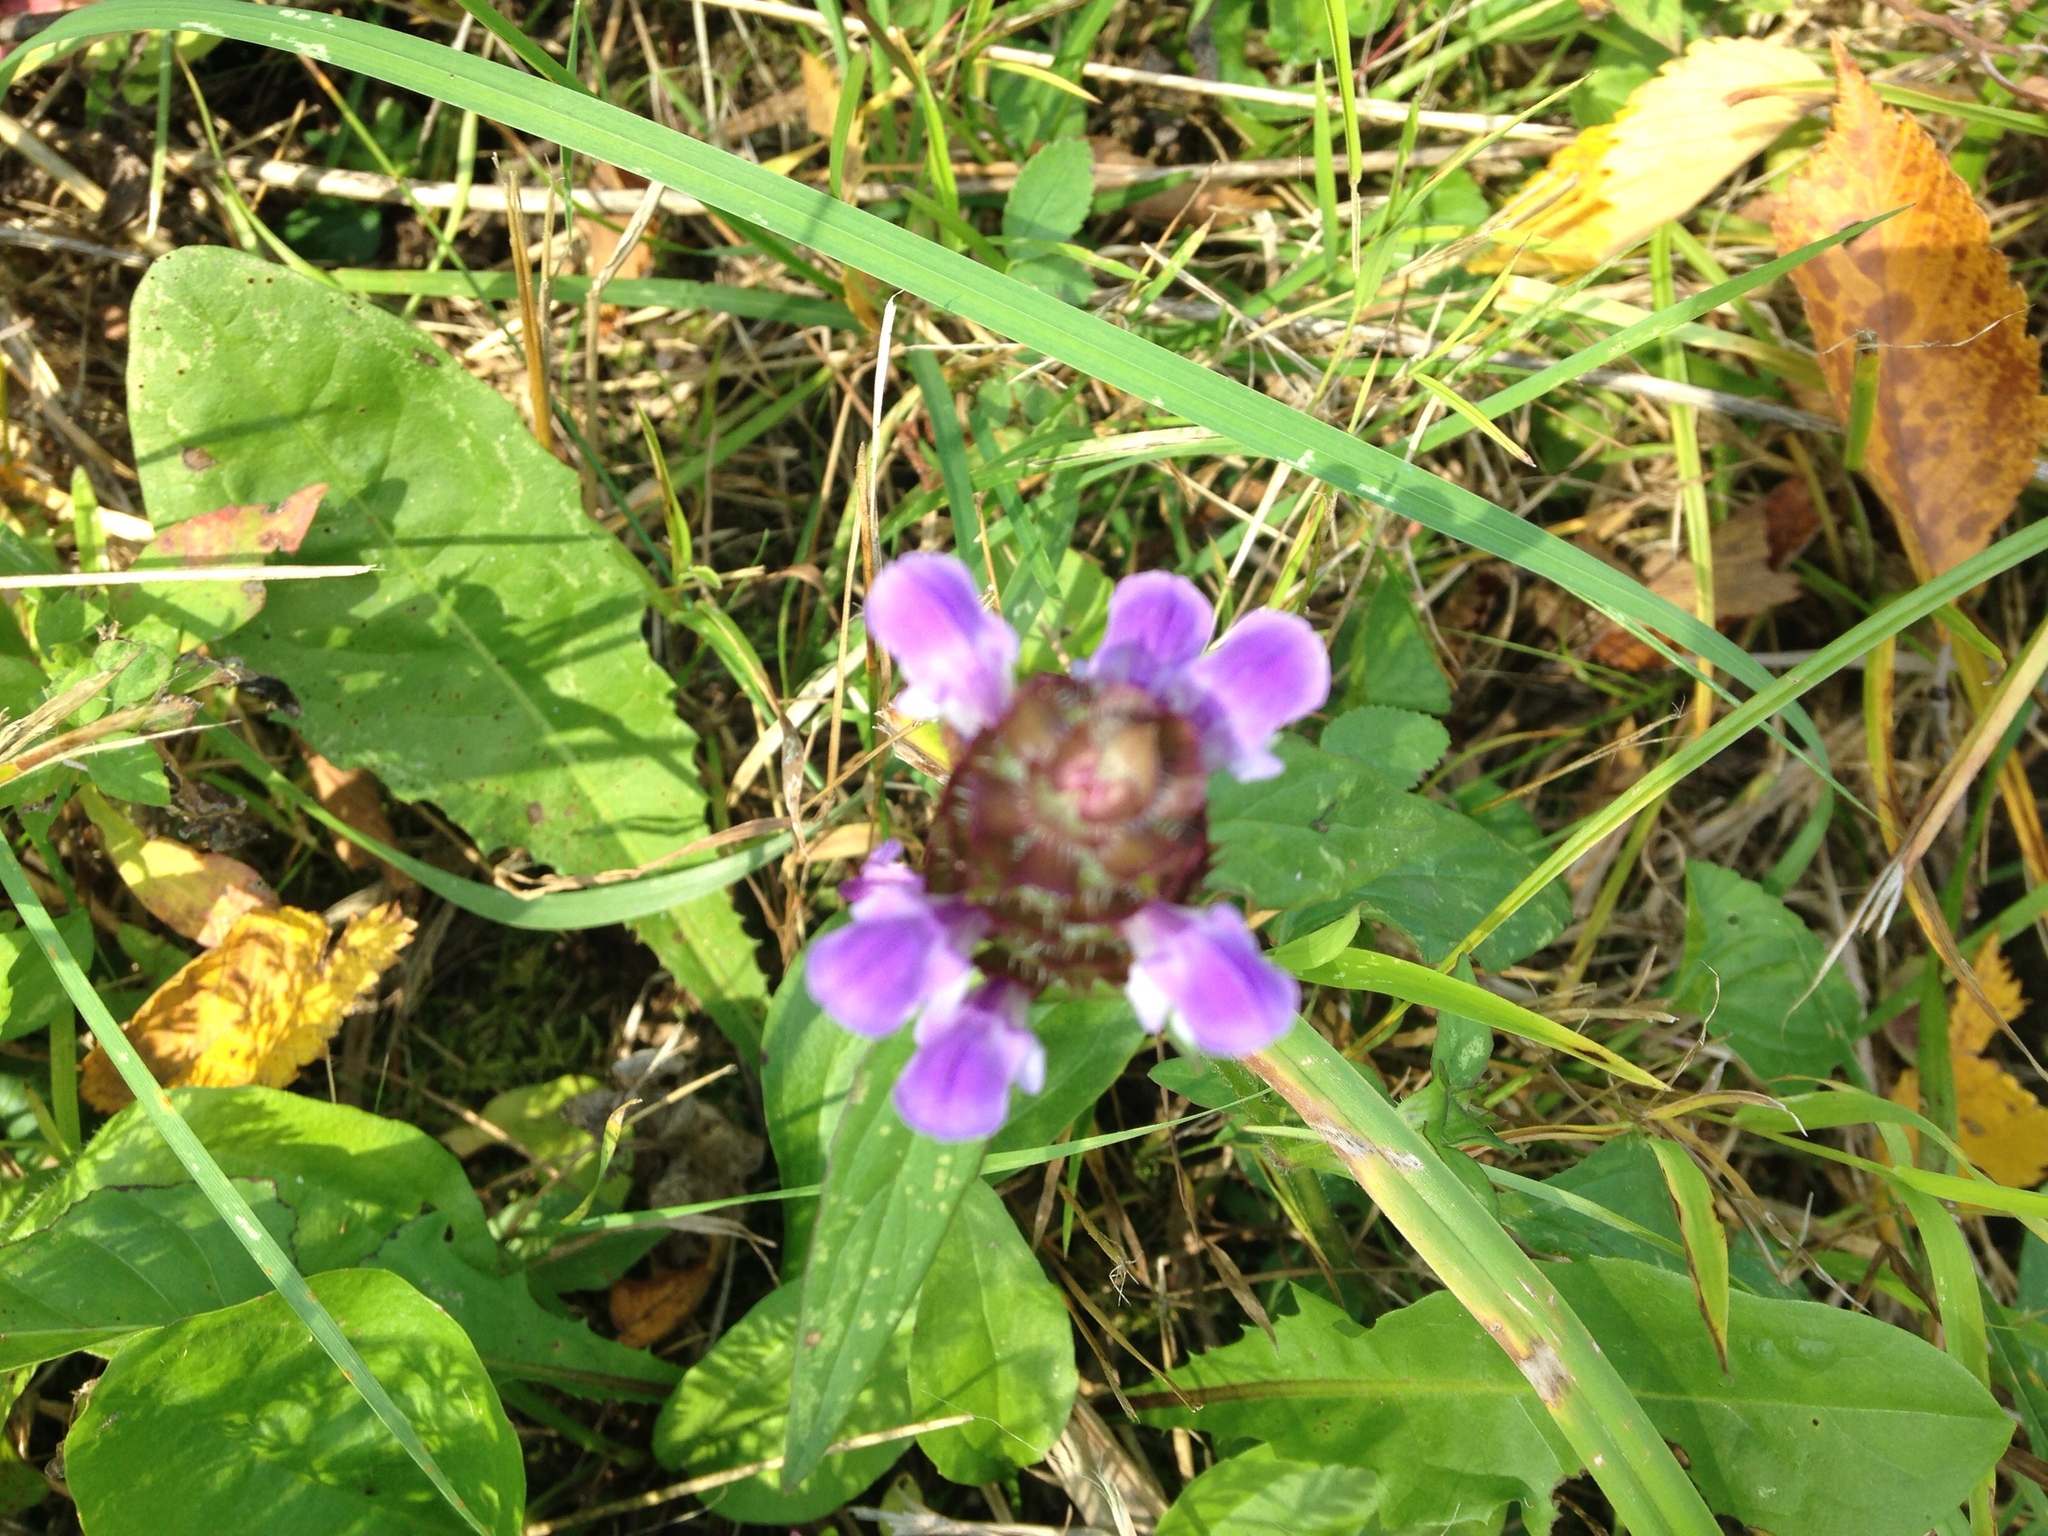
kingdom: Plantae
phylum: Tracheophyta
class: Magnoliopsida
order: Lamiales
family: Lamiaceae
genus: Prunella
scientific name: Prunella vulgaris
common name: Heal-all
